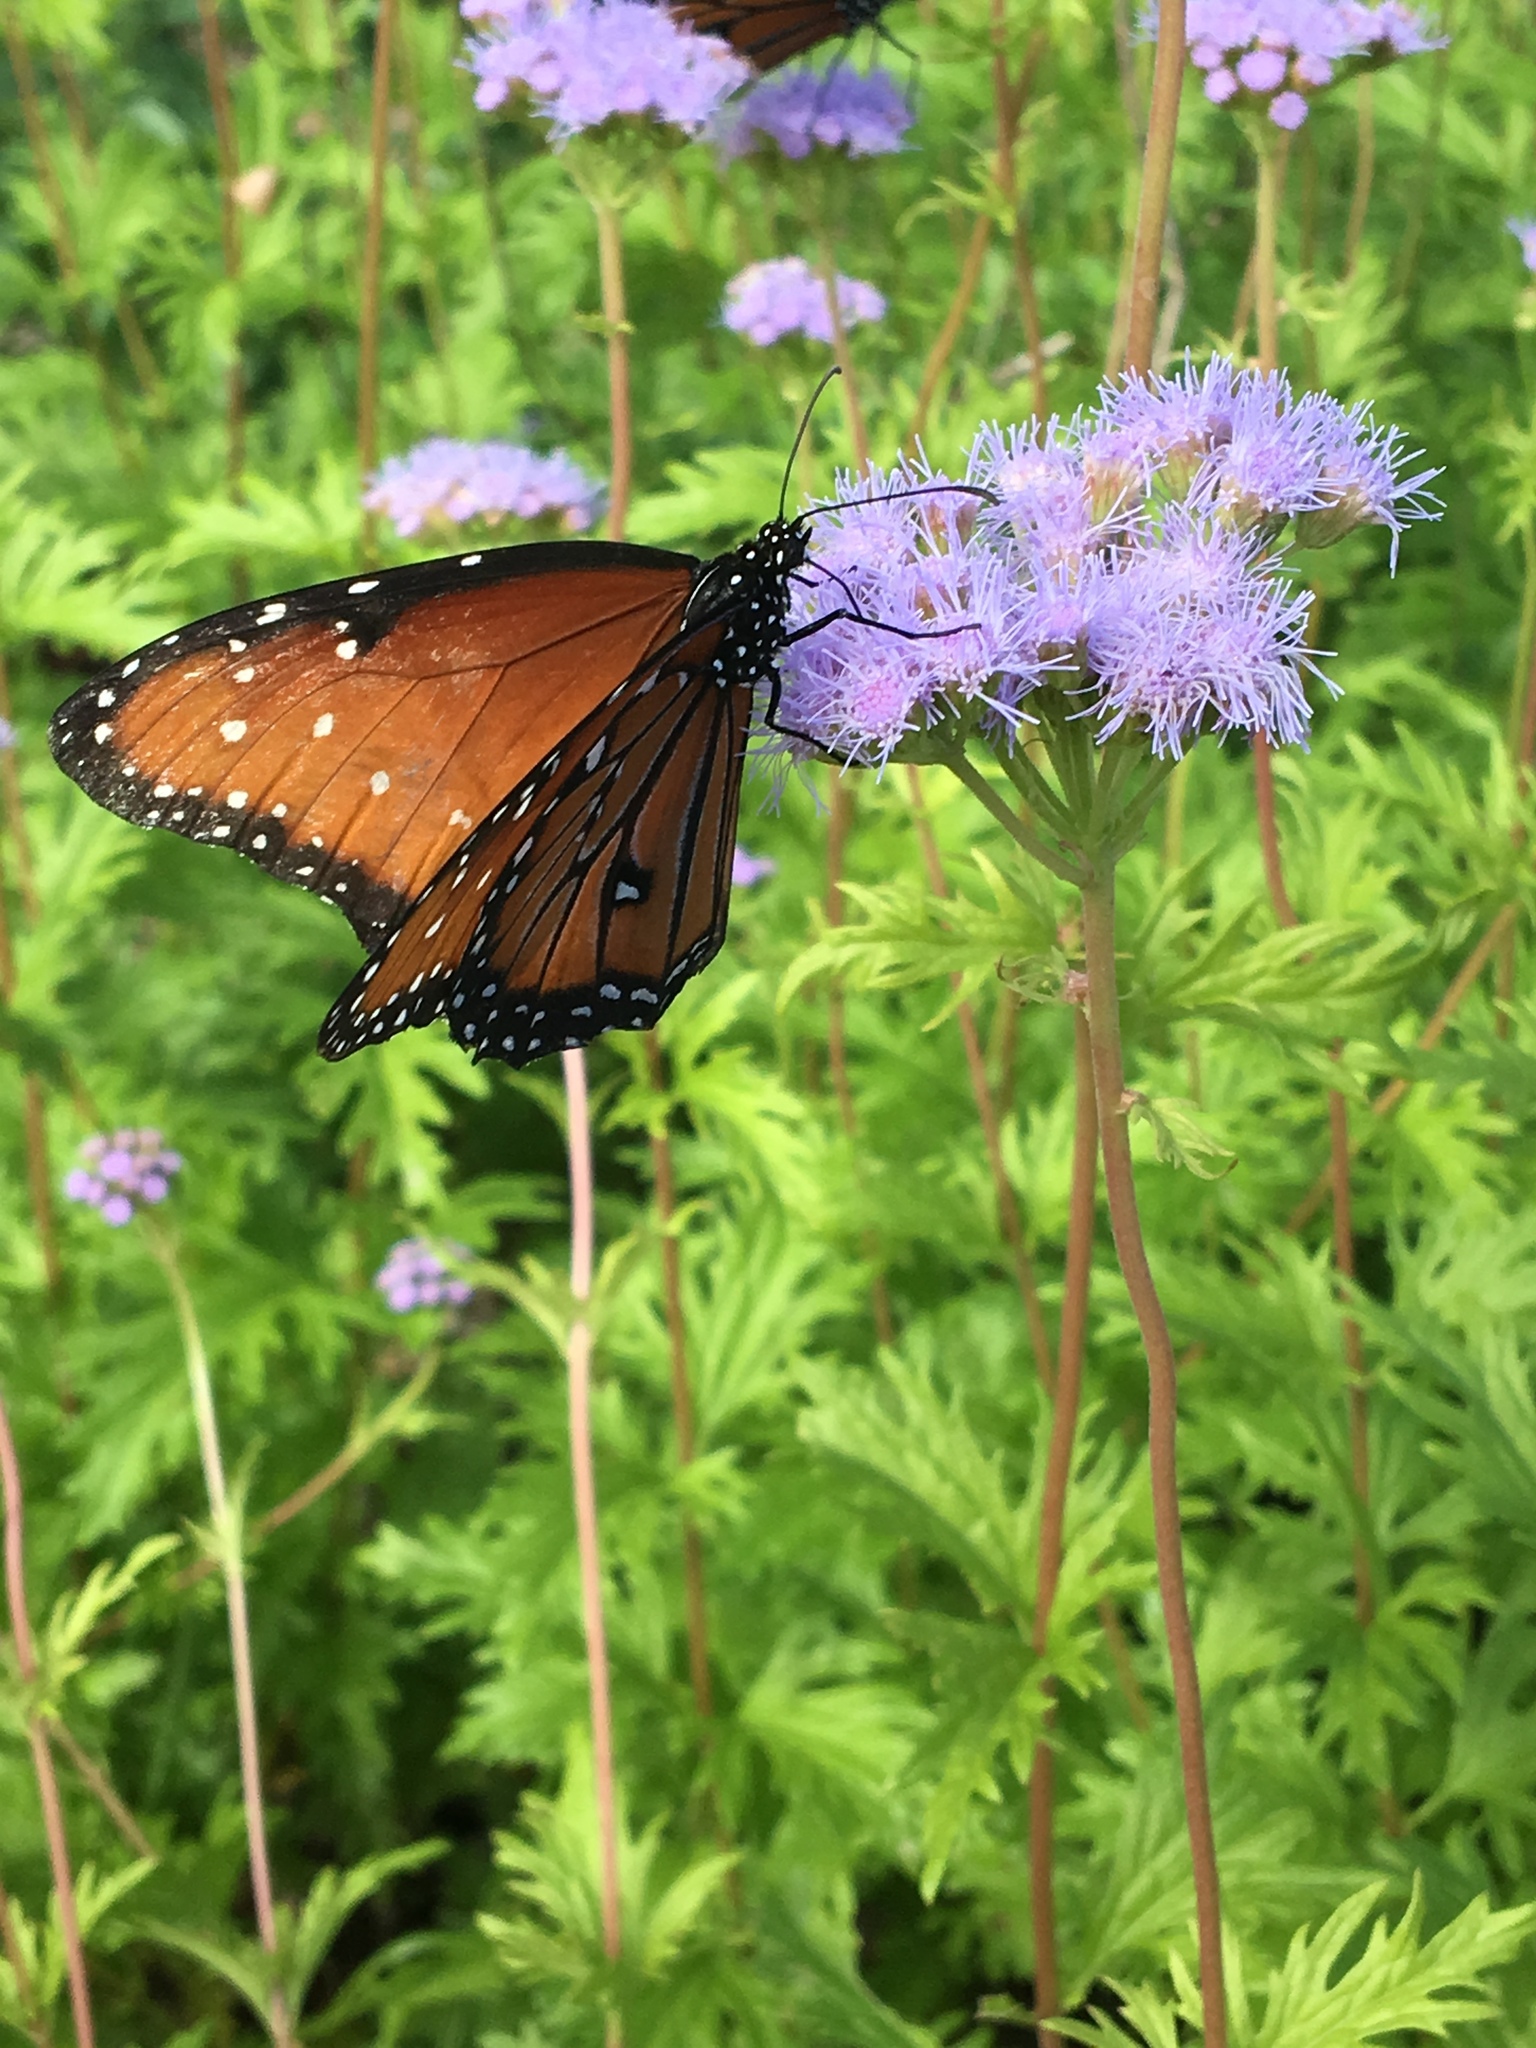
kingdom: Animalia
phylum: Arthropoda
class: Insecta
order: Lepidoptera
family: Nymphalidae
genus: Danaus
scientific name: Danaus gilippus
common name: Queen
